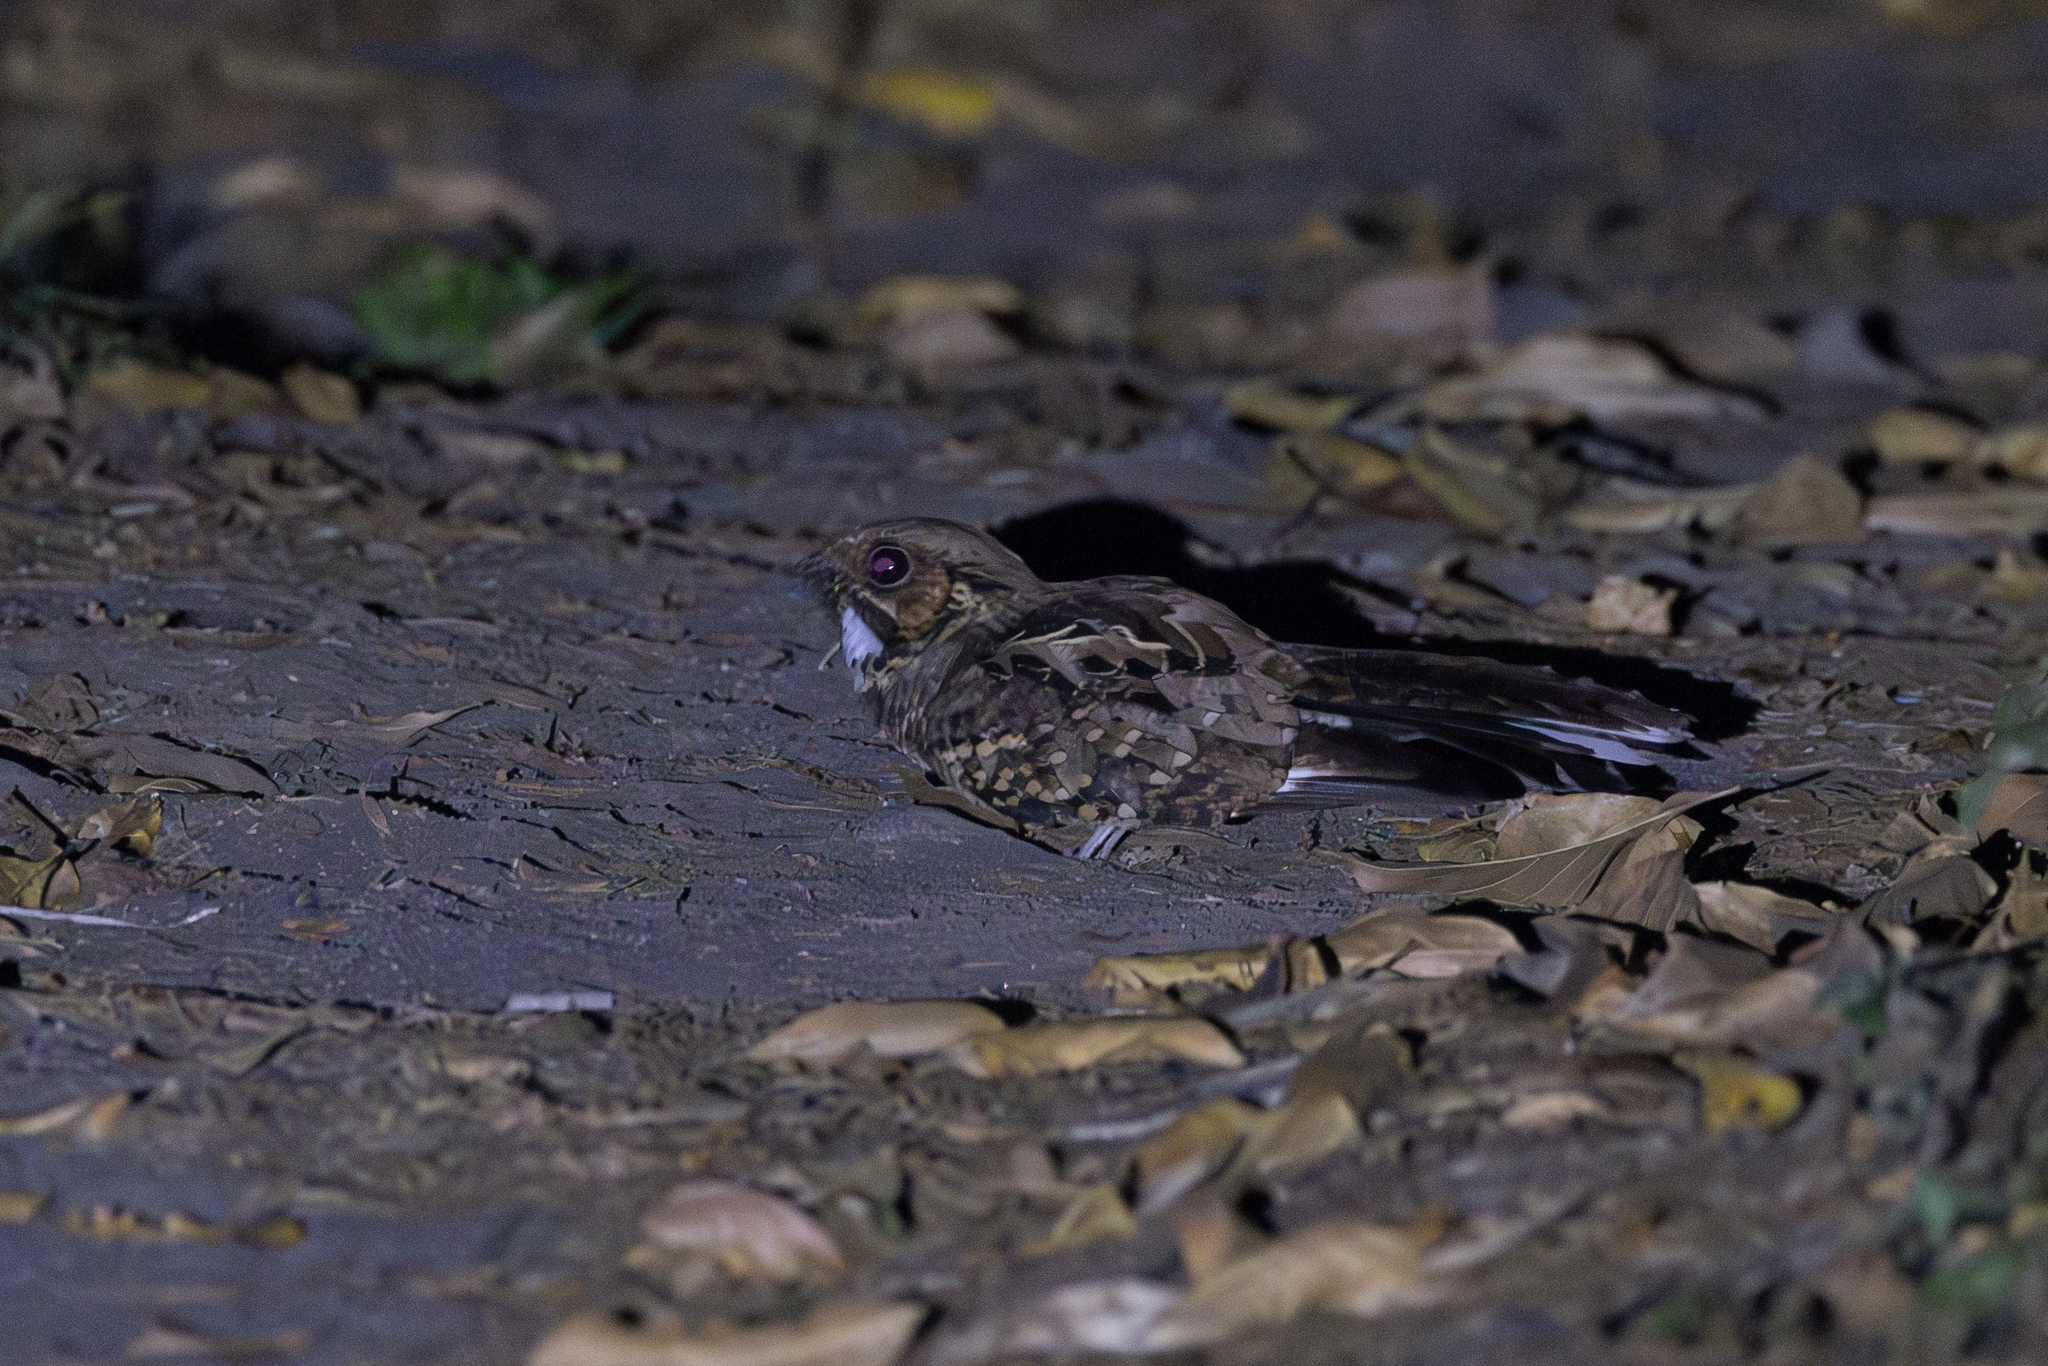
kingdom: Animalia
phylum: Chordata
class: Aves
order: Caprimulgiformes
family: Caprimulgidae
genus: Nyctidromus
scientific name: Nyctidromus albicollis
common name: Pauraque
